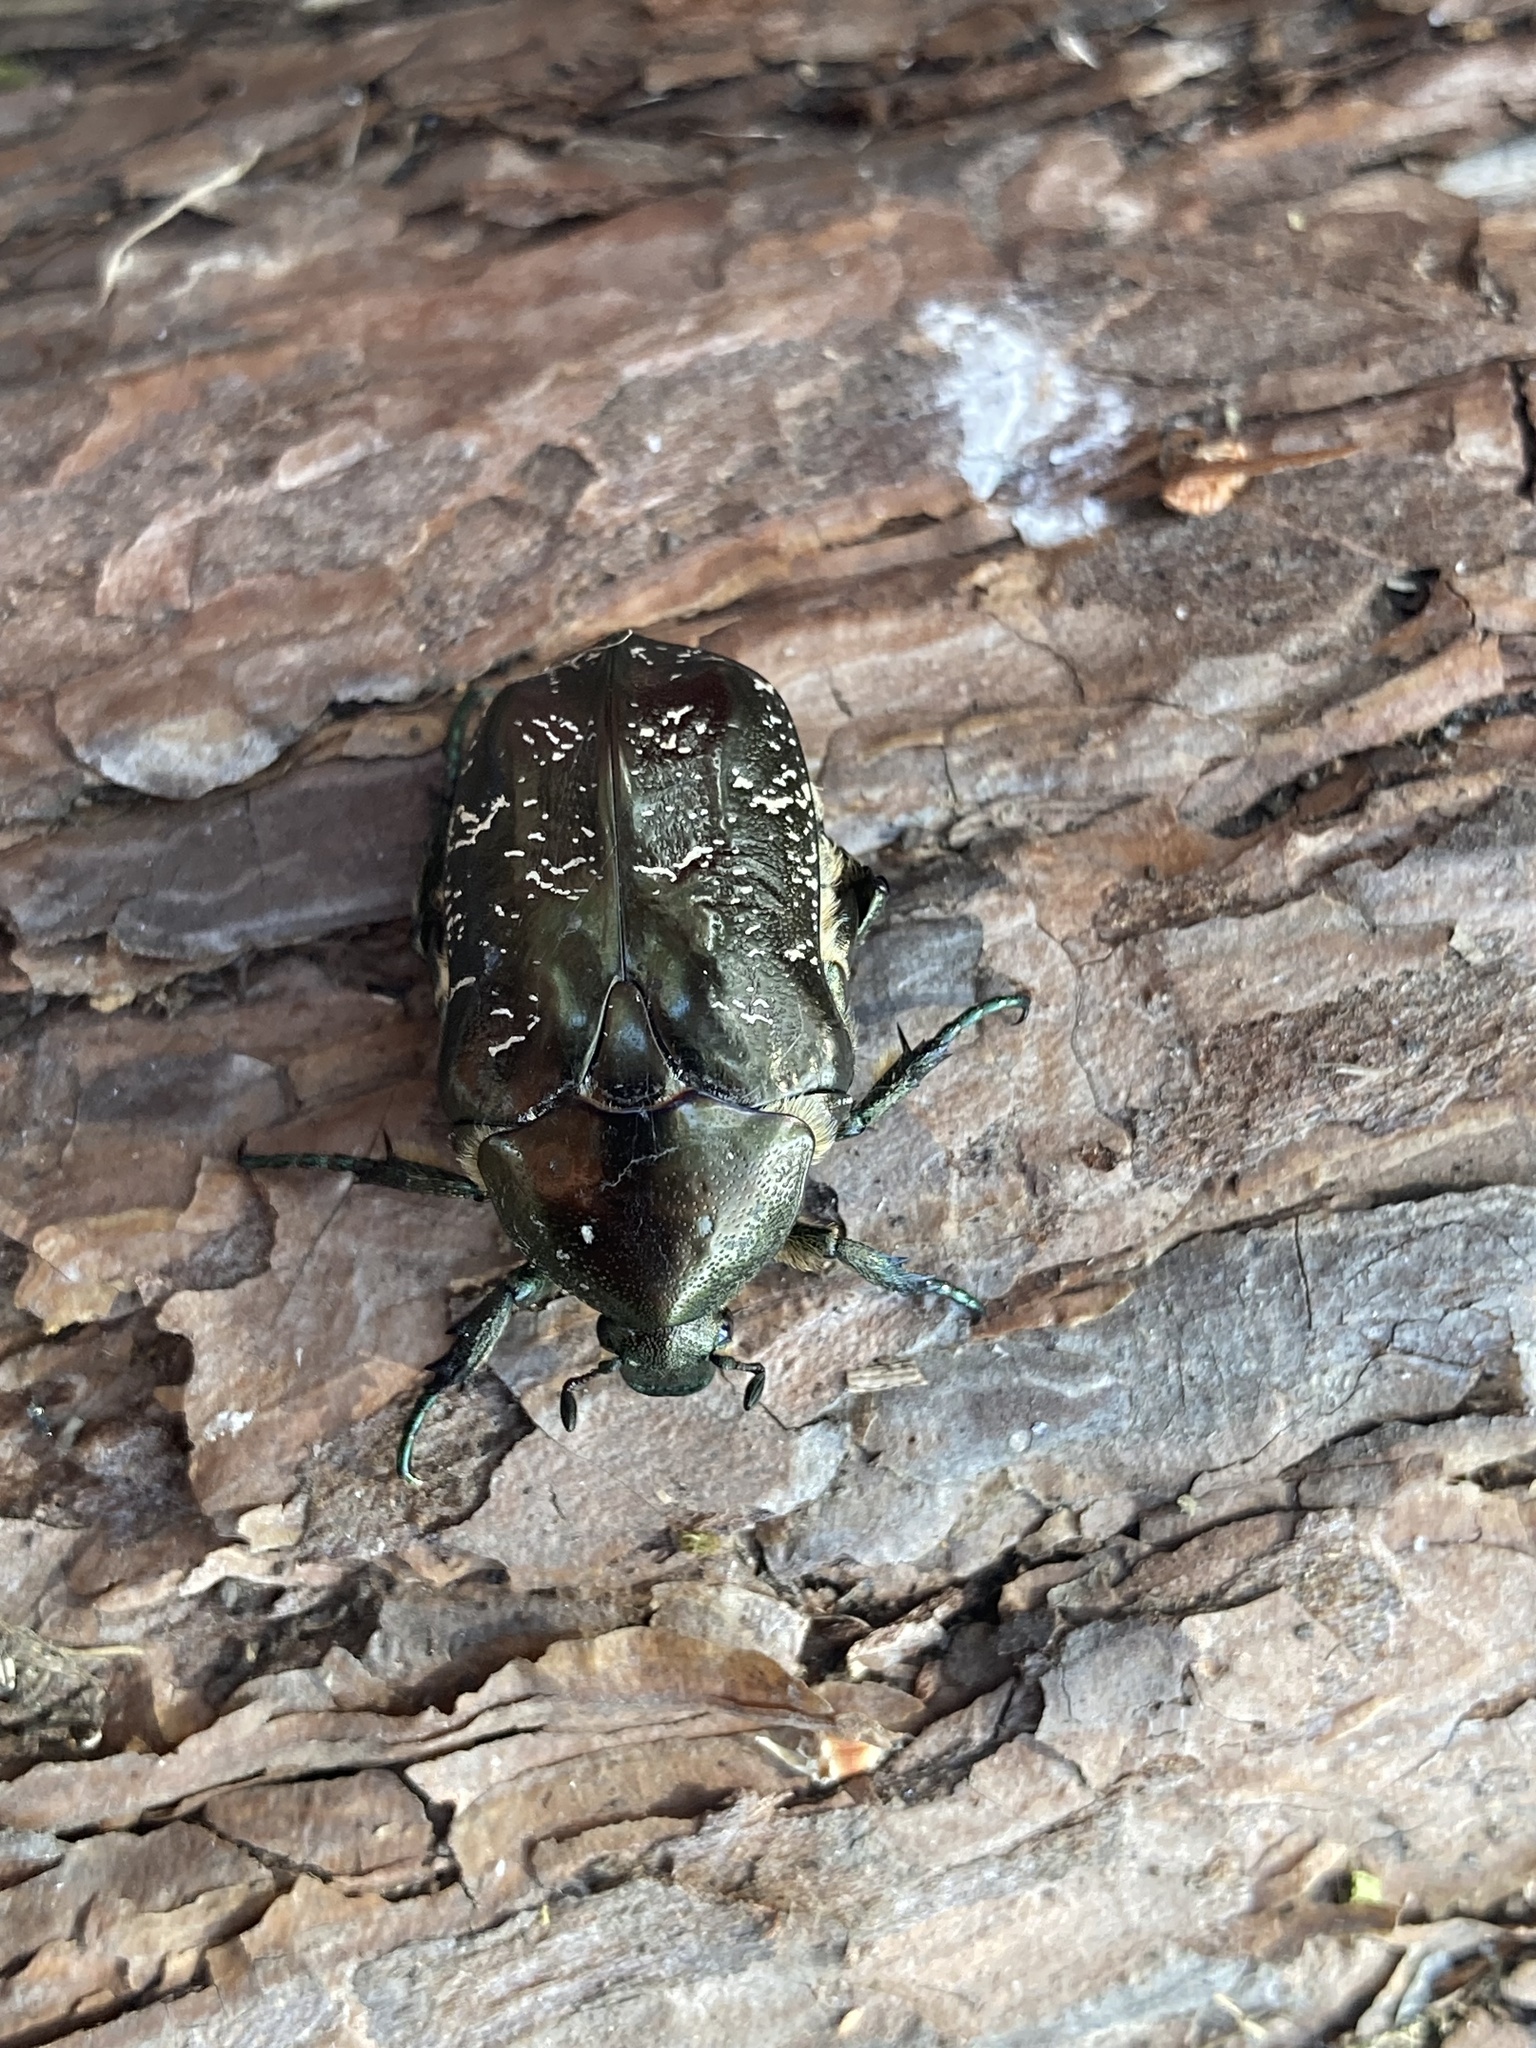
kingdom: Animalia
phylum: Arthropoda
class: Insecta
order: Coleoptera
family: Scarabaeidae
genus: Protaetia
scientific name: Protaetia marmorata
